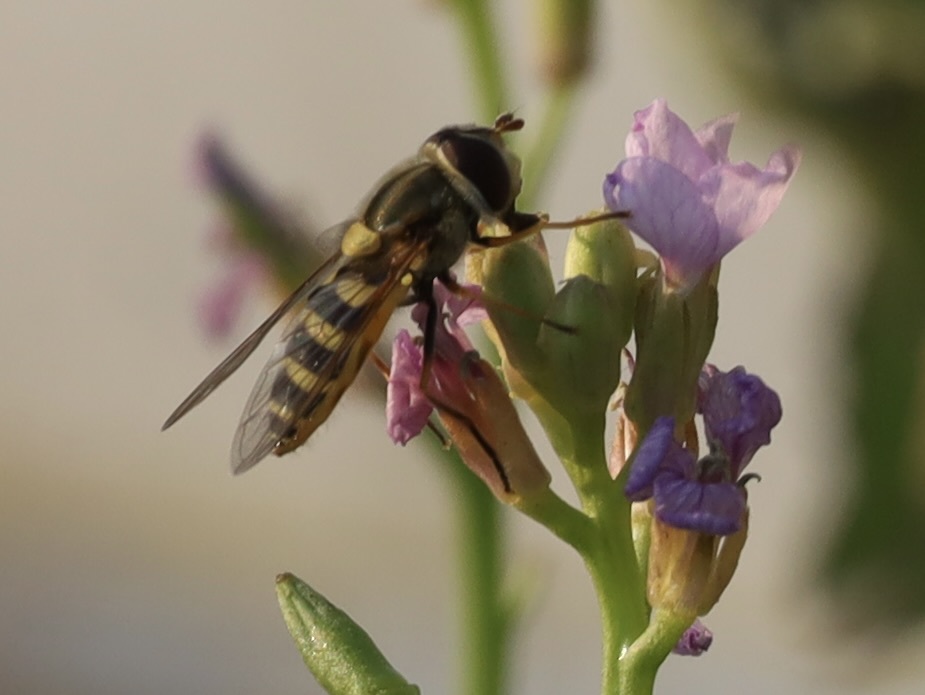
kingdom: Animalia
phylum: Arthropoda
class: Insecta
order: Diptera
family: Syrphidae
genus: Syrphus
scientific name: Syrphus
